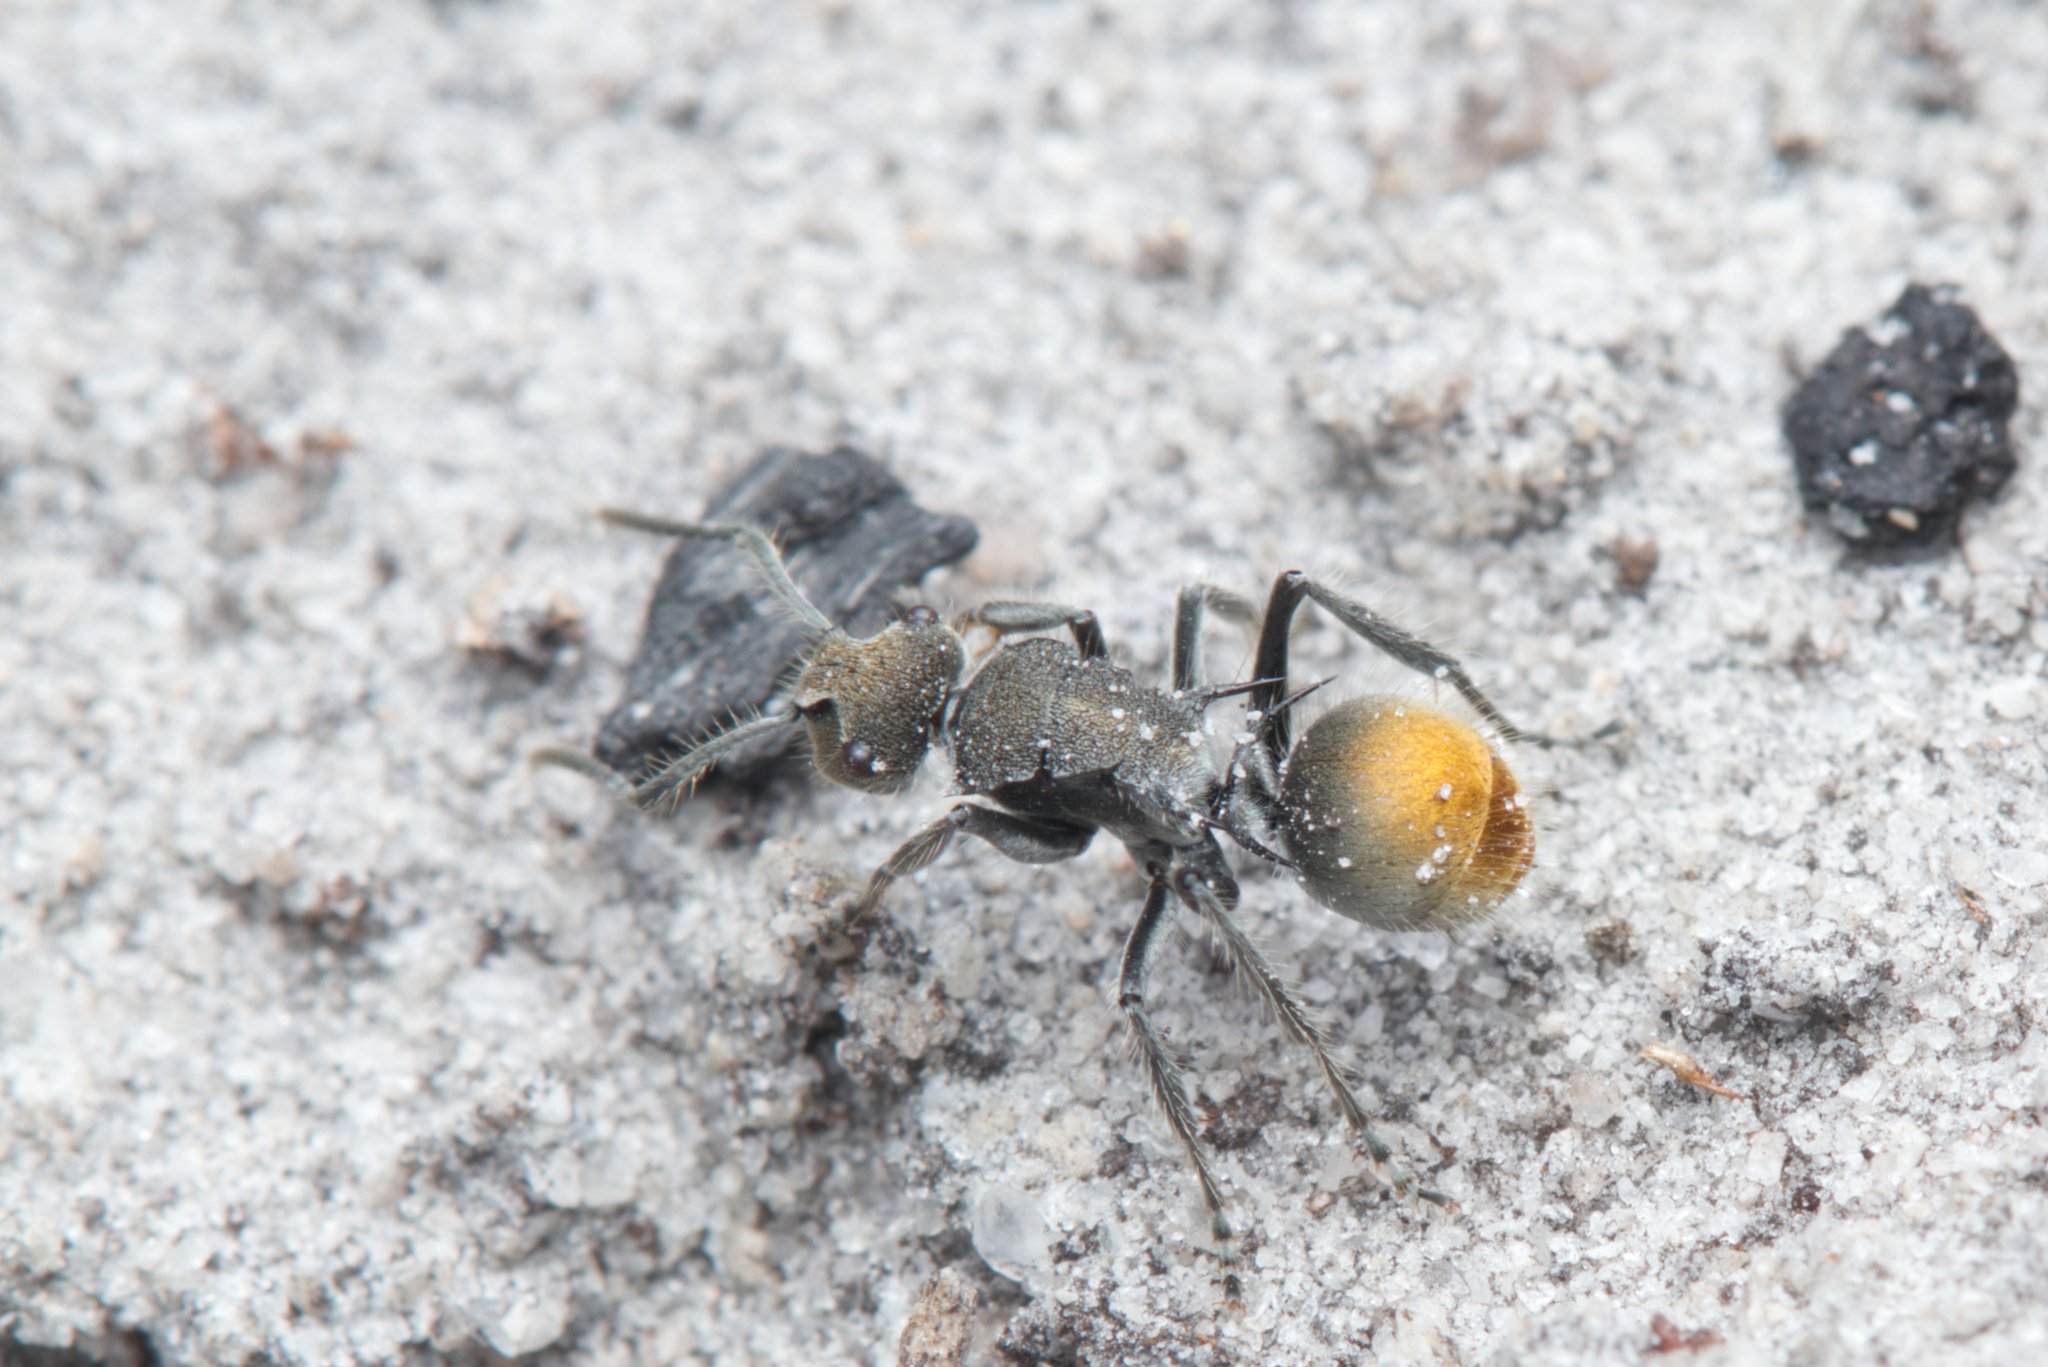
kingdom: Animalia
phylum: Arthropoda
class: Insecta
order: Hymenoptera
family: Formicidae
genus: Polyrhachis
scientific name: Polyrhachis vermiculosa
